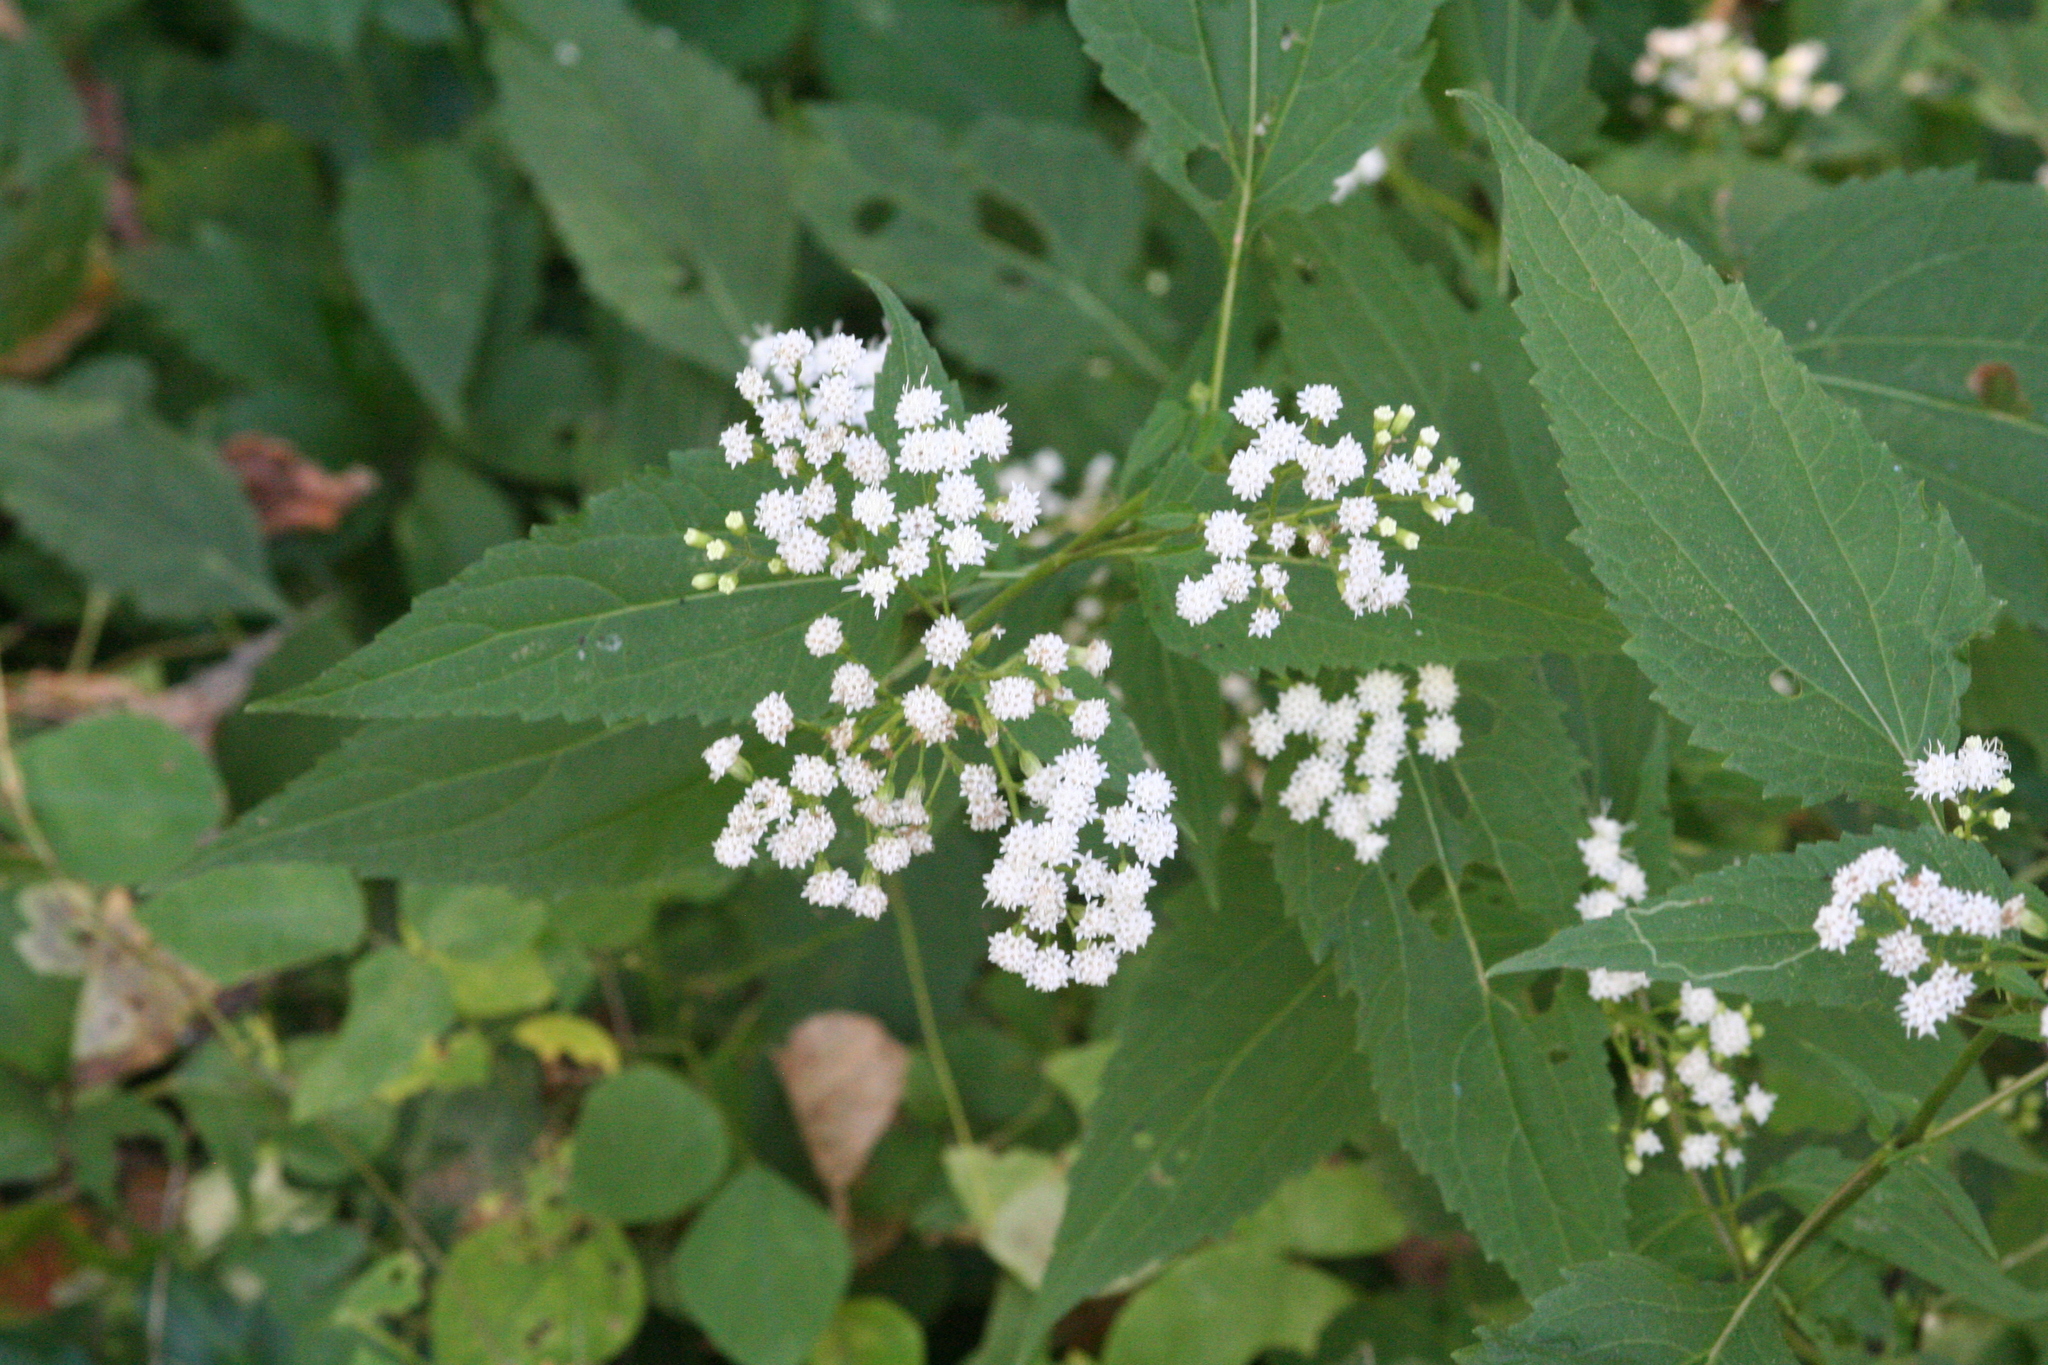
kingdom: Plantae
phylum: Tracheophyta
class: Magnoliopsida
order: Asterales
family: Asteraceae
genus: Ageratina
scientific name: Ageratina altissima
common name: White snakeroot
